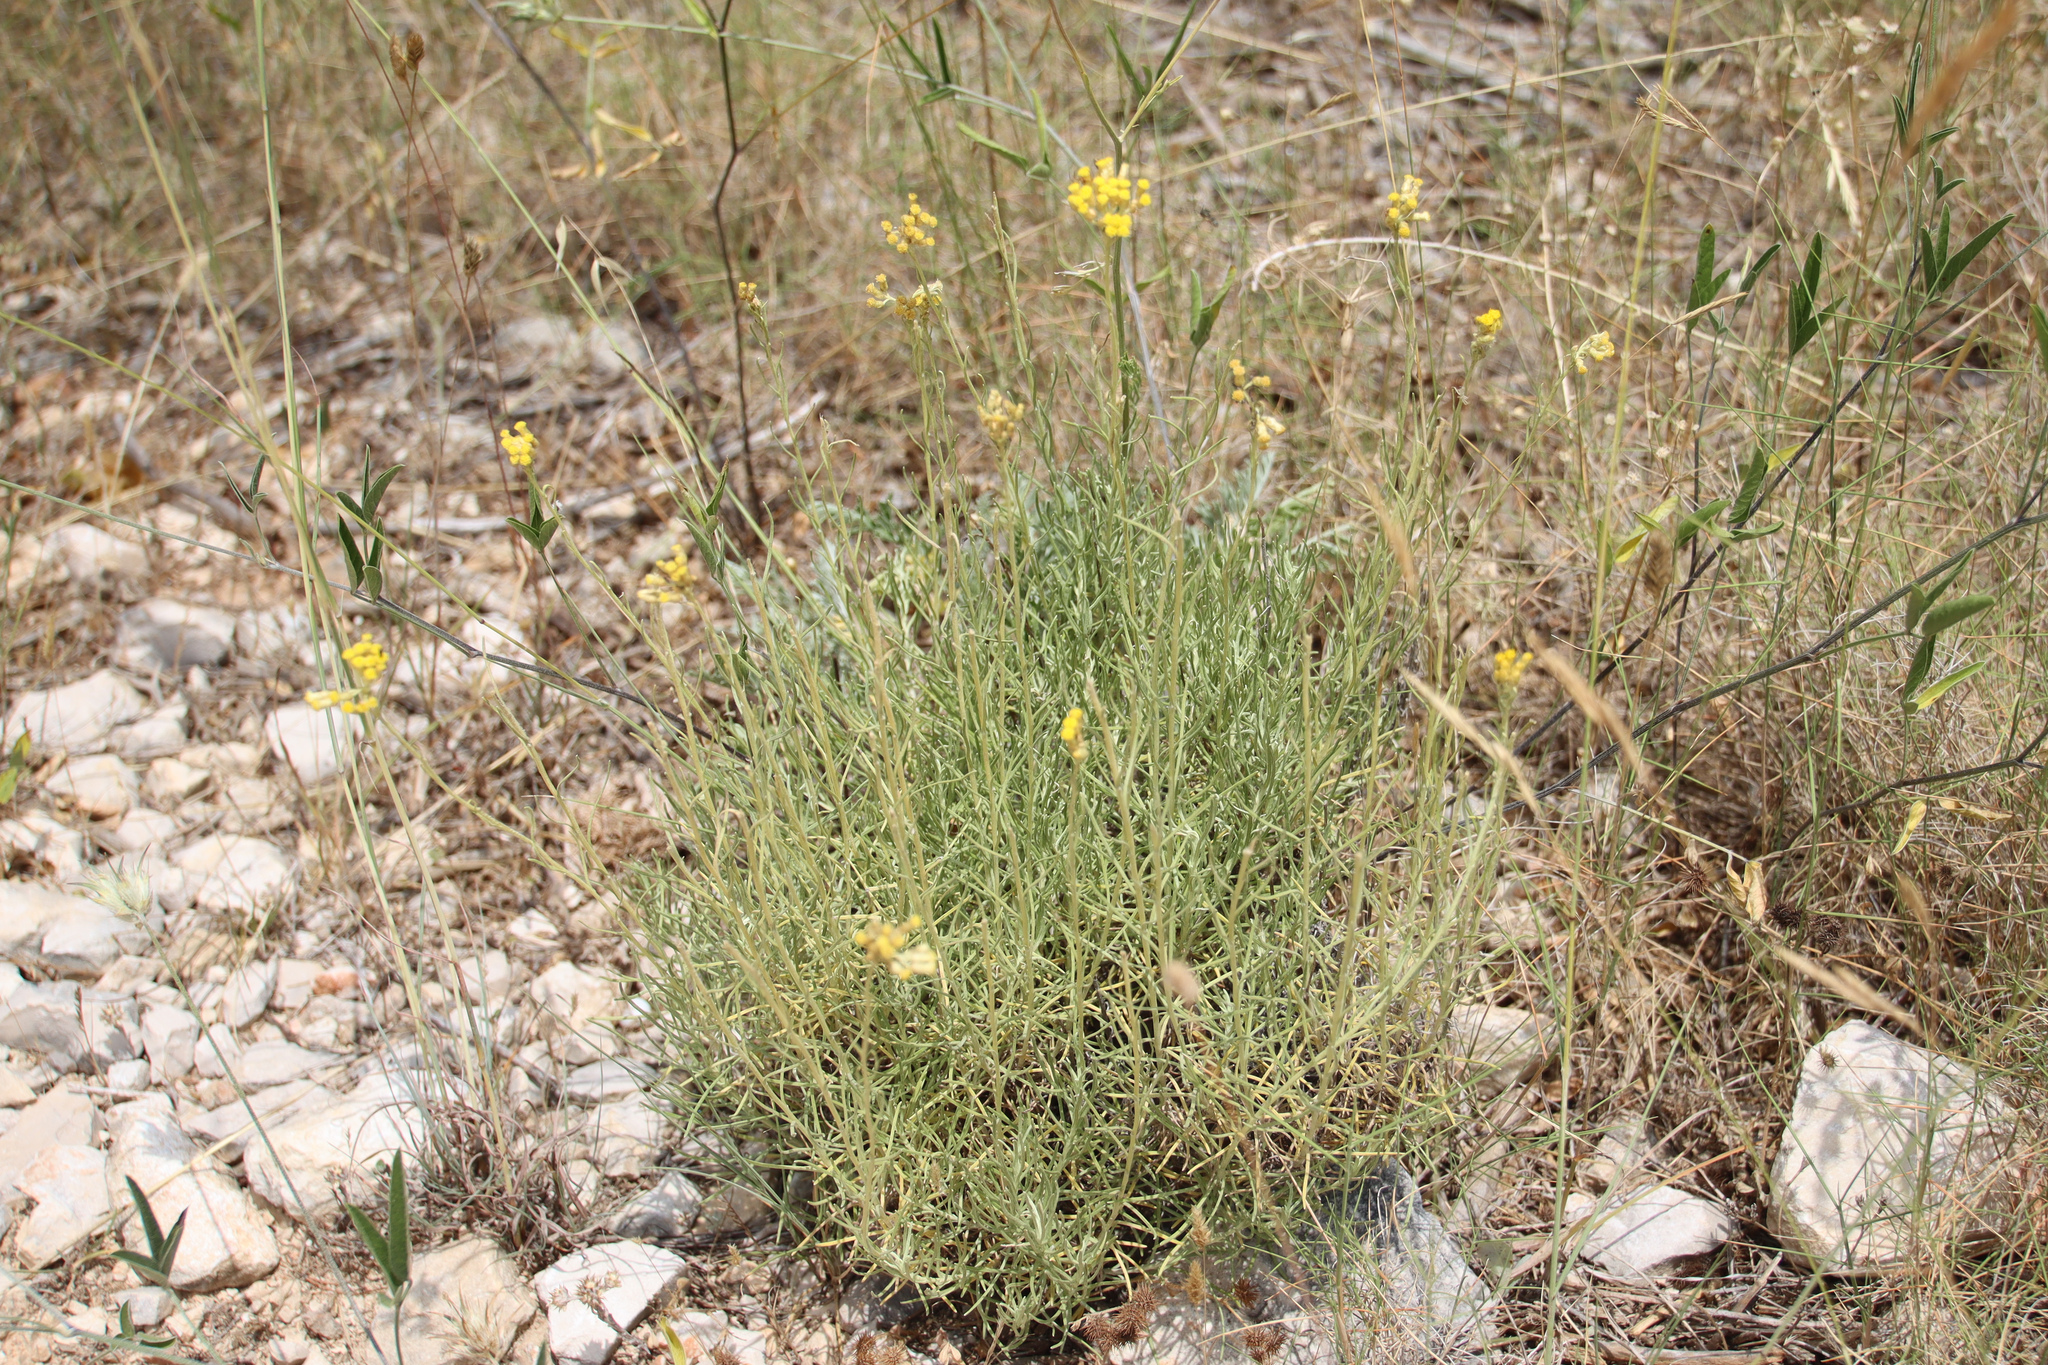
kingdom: Plantae
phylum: Tracheophyta
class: Magnoliopsida
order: Asterales
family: Asteraceae
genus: Helichrysum
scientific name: Helichrysum italicum
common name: Curryplant
